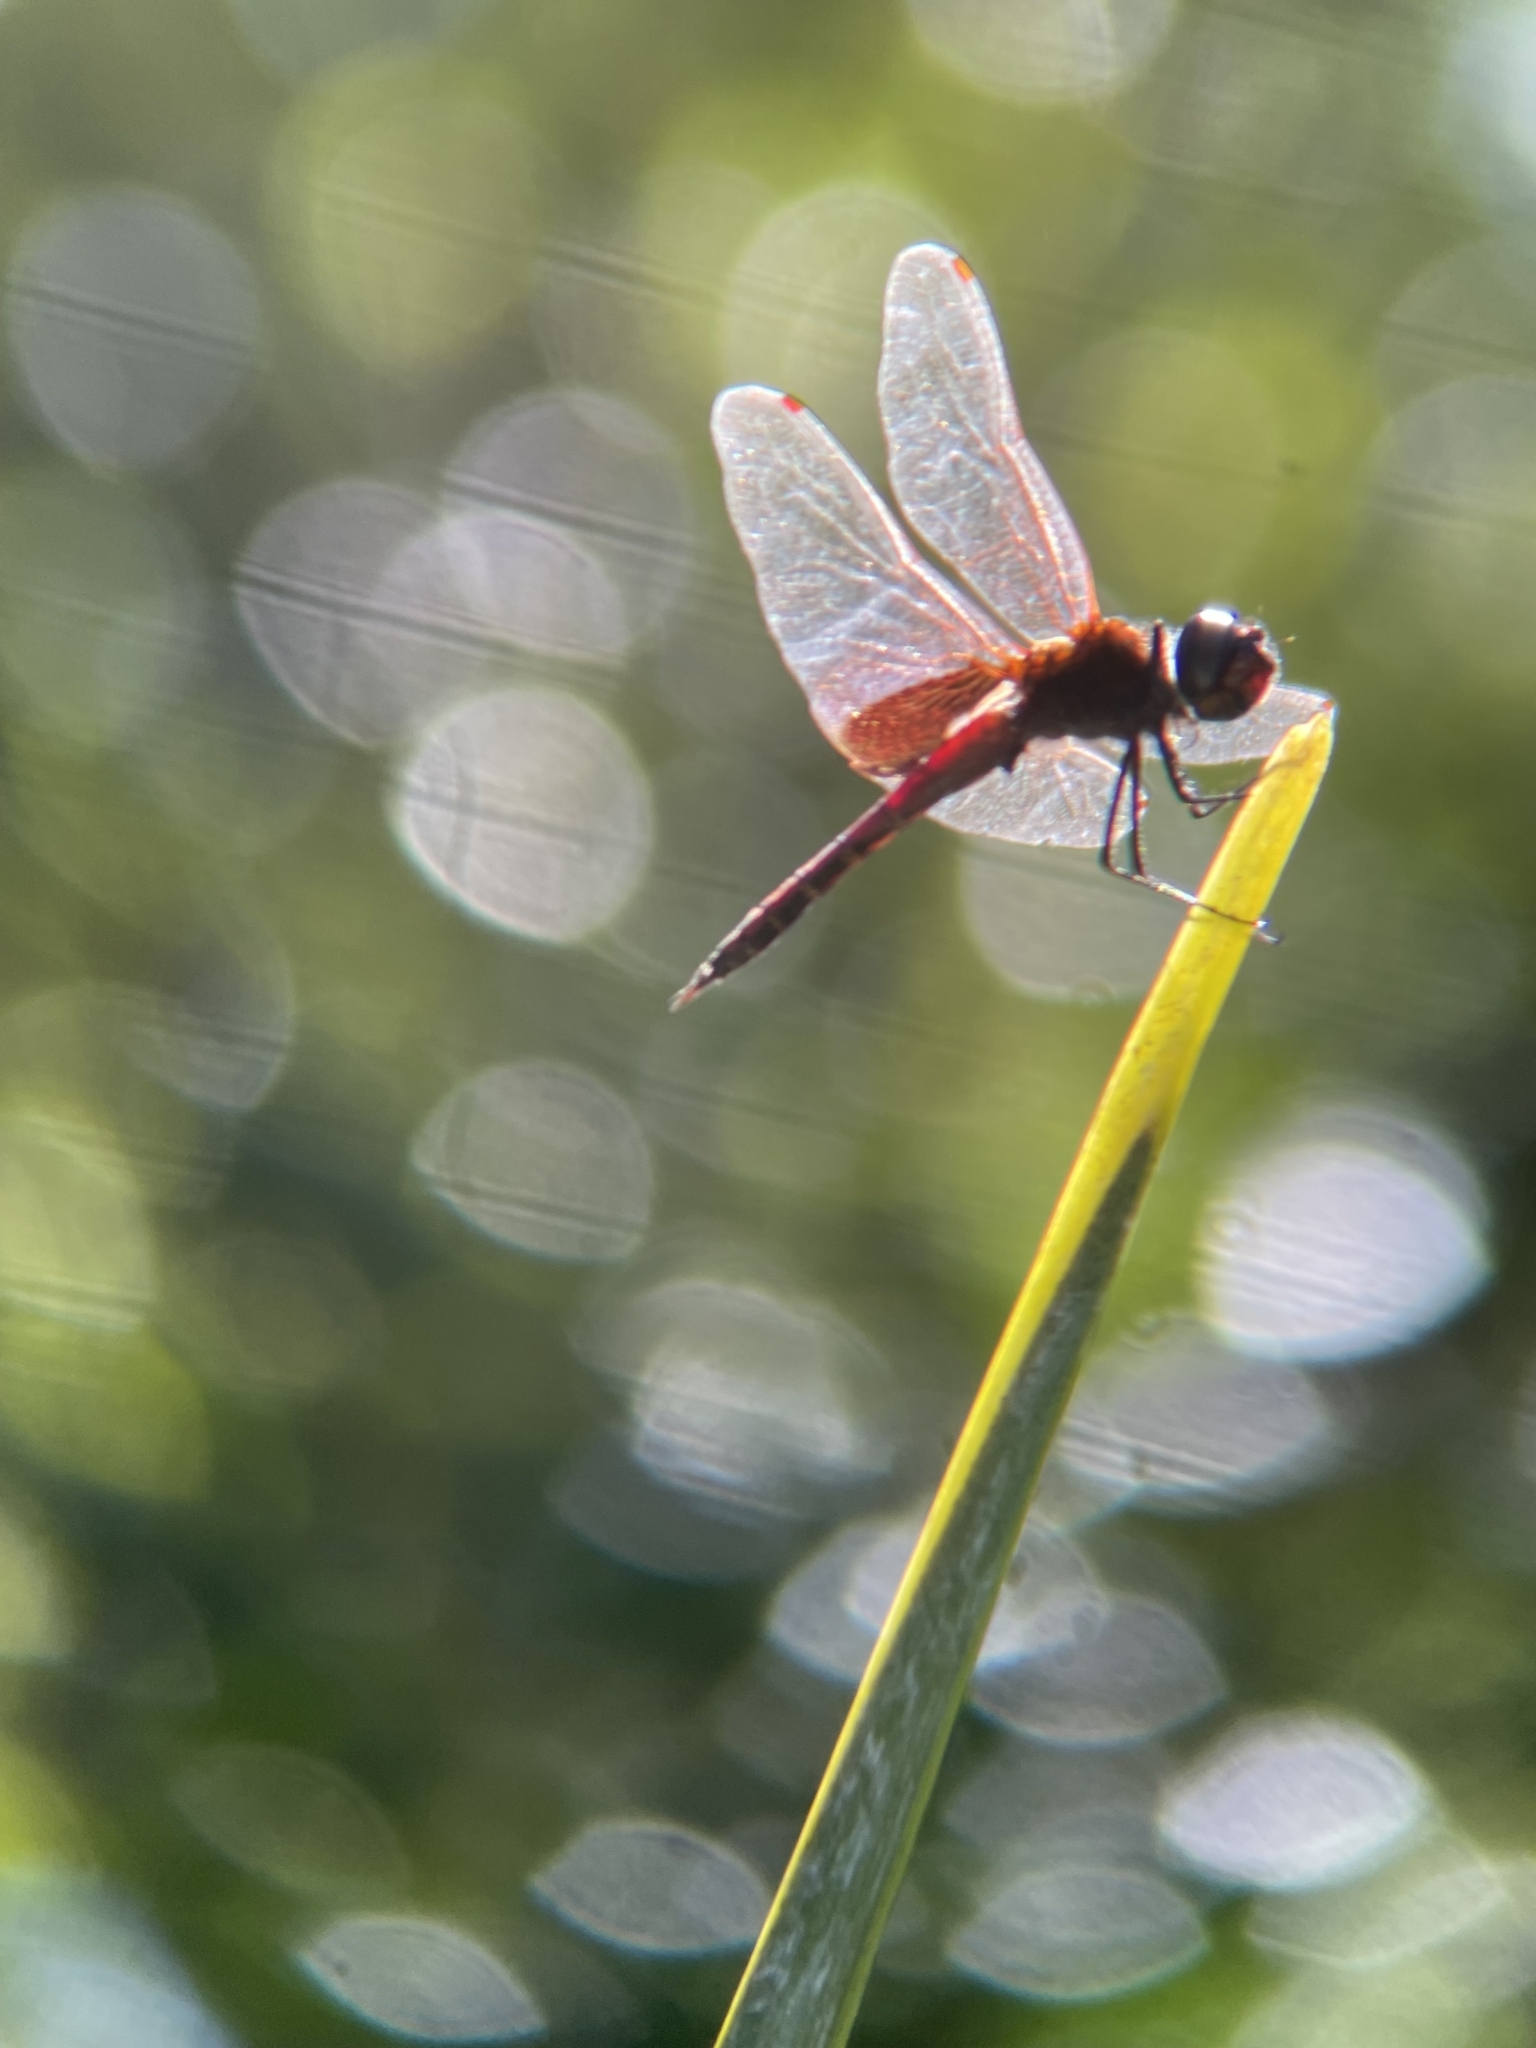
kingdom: Animalia
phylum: Arthropoda
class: Insecta
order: Odonata
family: Libellulidae
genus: Tramea
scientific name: Tramea limbata
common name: Ferruginous glider
